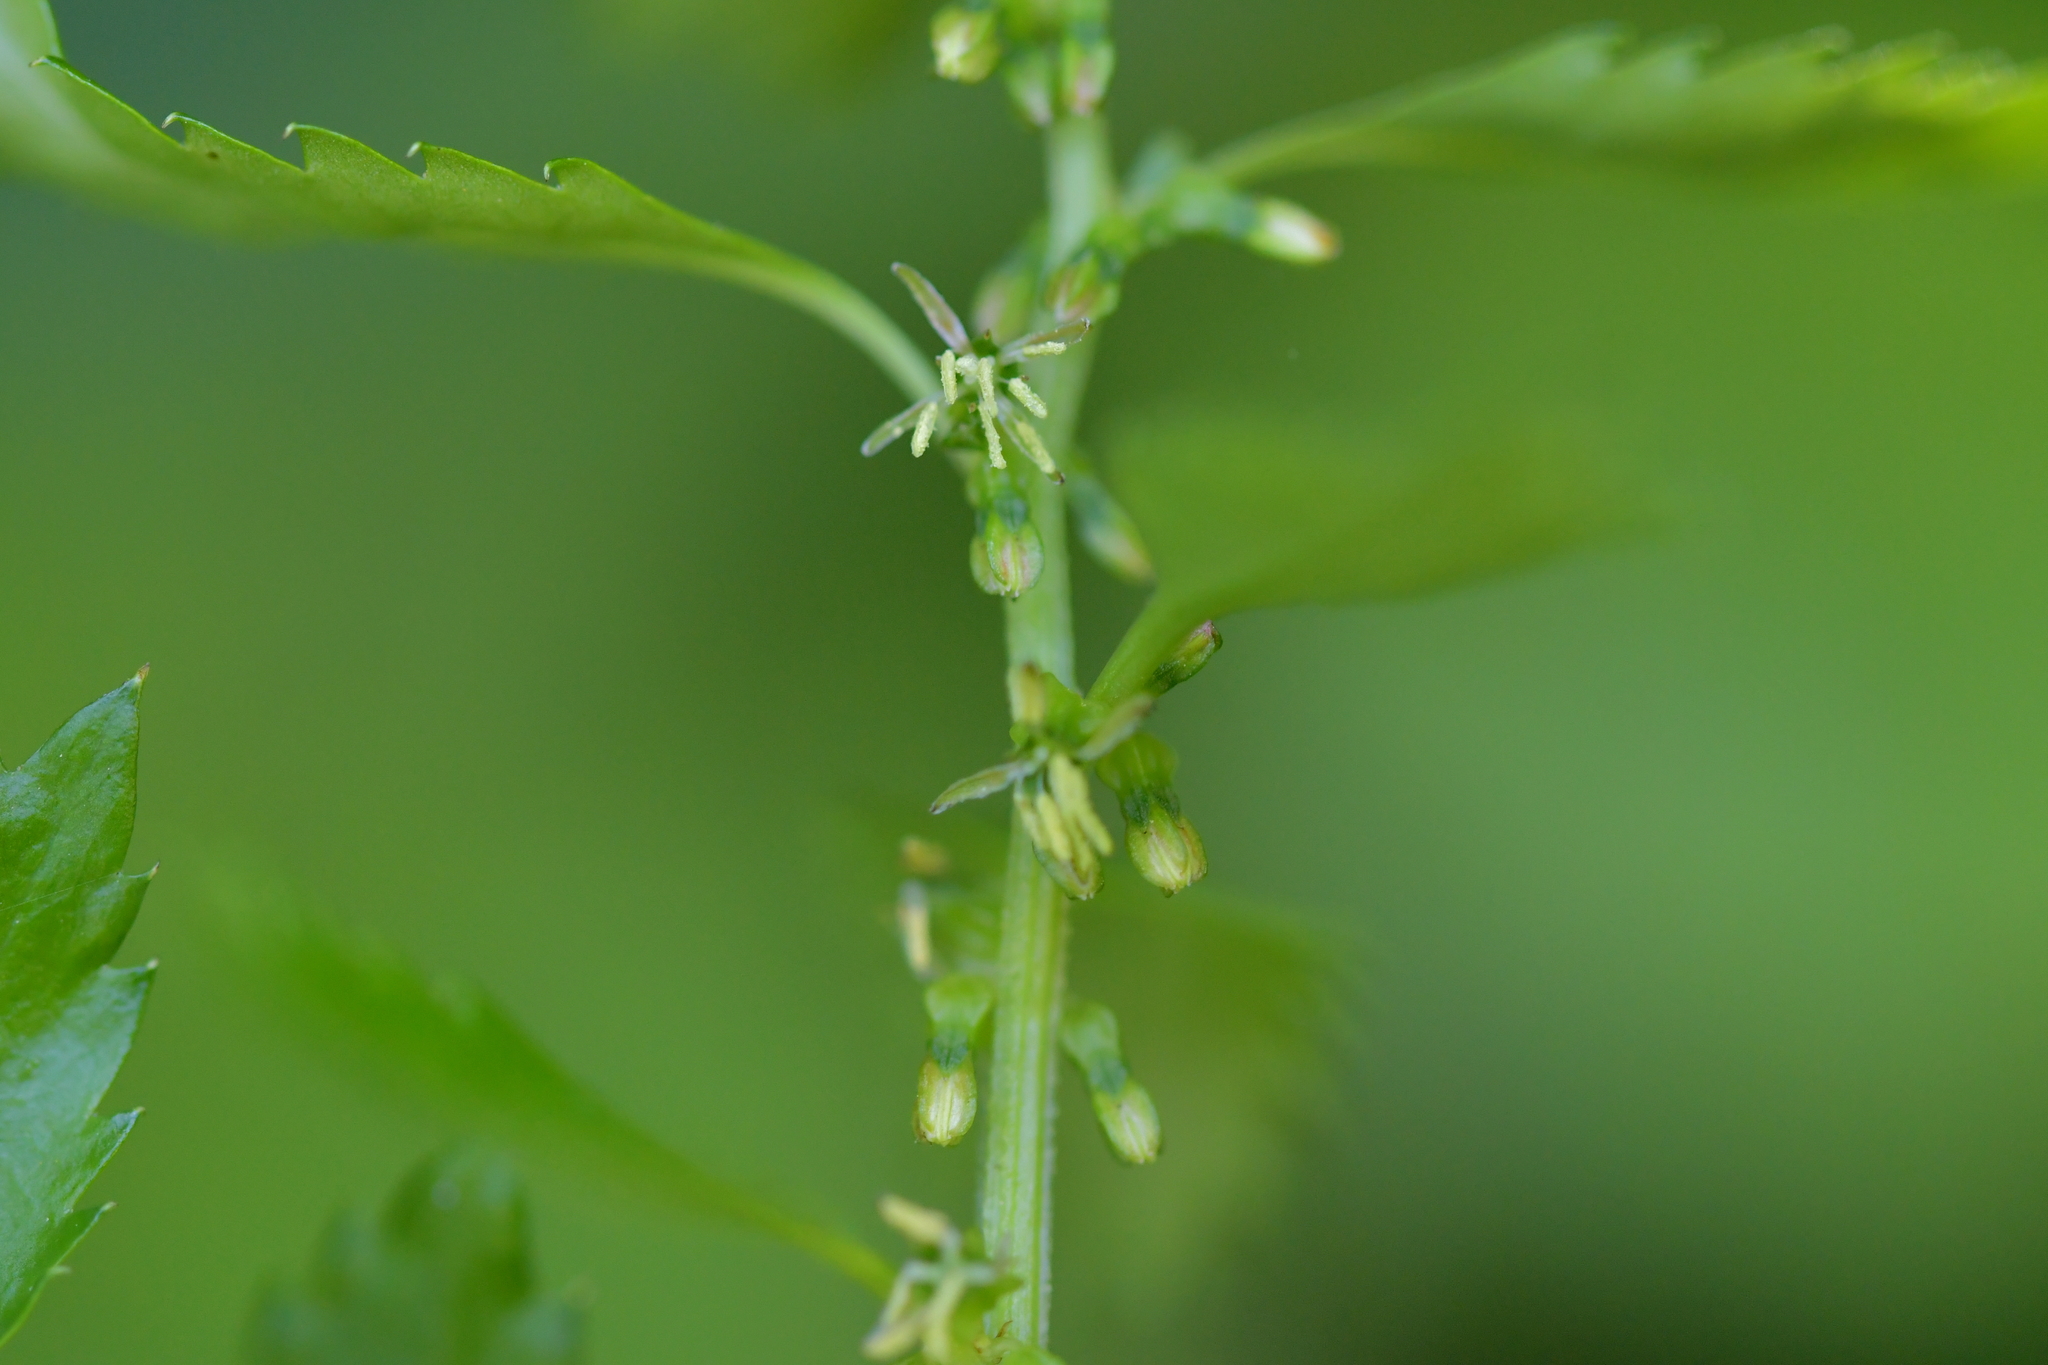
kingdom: Plantae
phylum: Tracheophyta
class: Magnoliopsida
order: Saxifragales
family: Haloragaceae
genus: Haloragis
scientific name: Haloragis erecta
